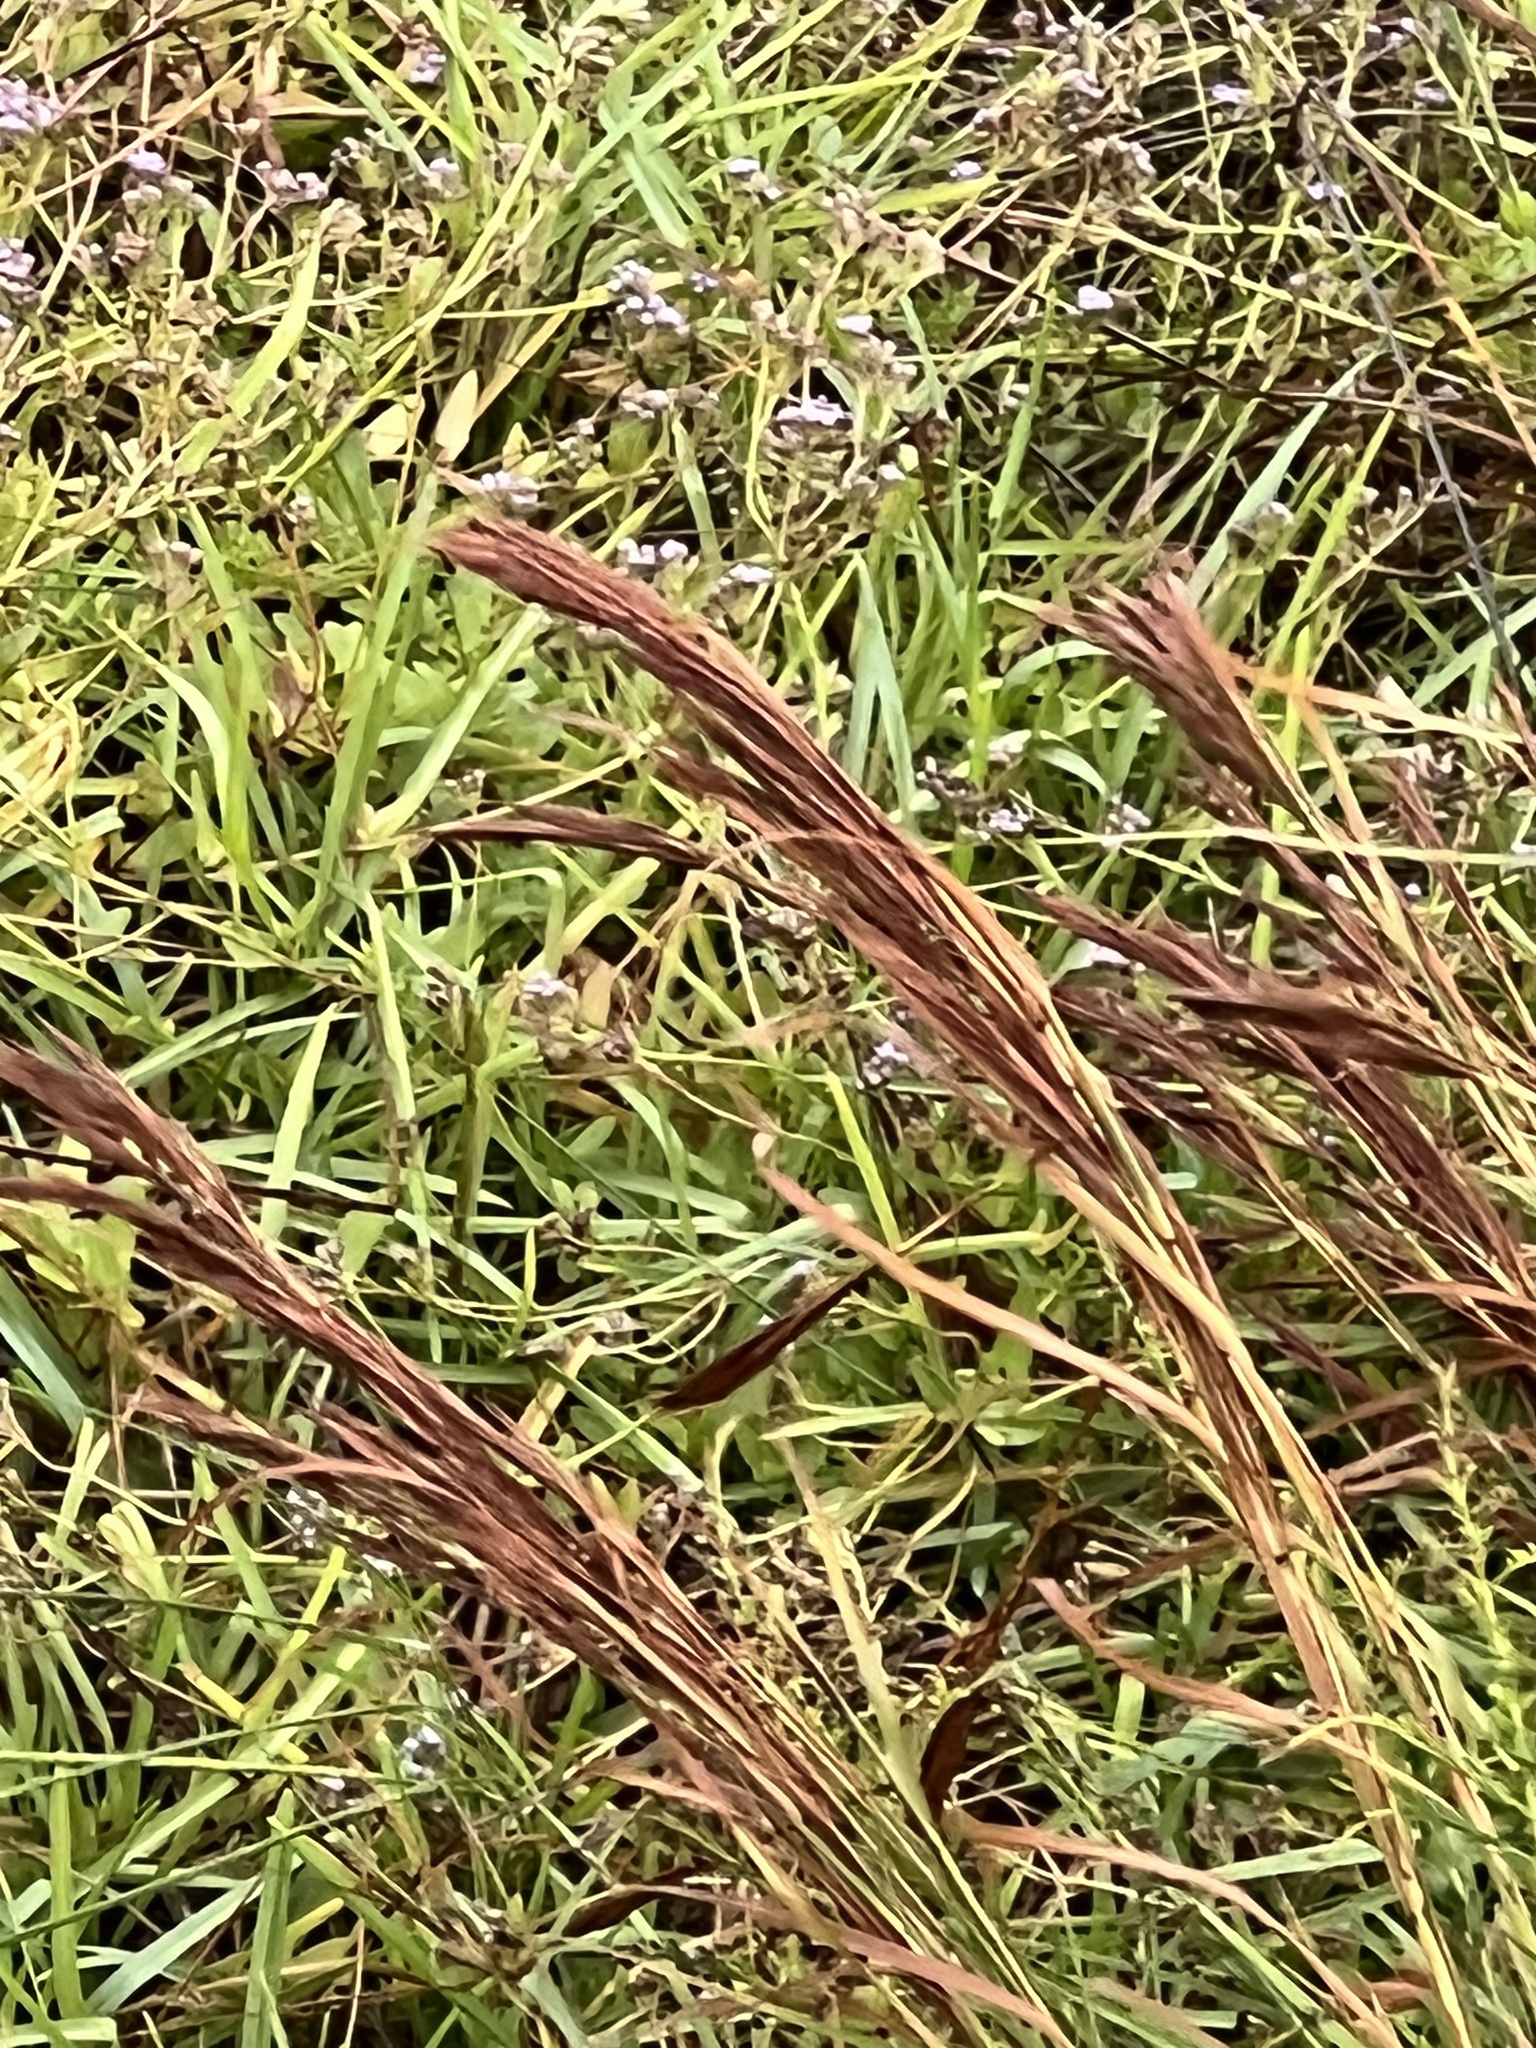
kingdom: Plantae
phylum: Tracheophyta
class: Liliopsida
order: Poales
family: Poaceae
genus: Andropogon
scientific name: Andropogon tenuispatheus
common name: Bushy bluestem
